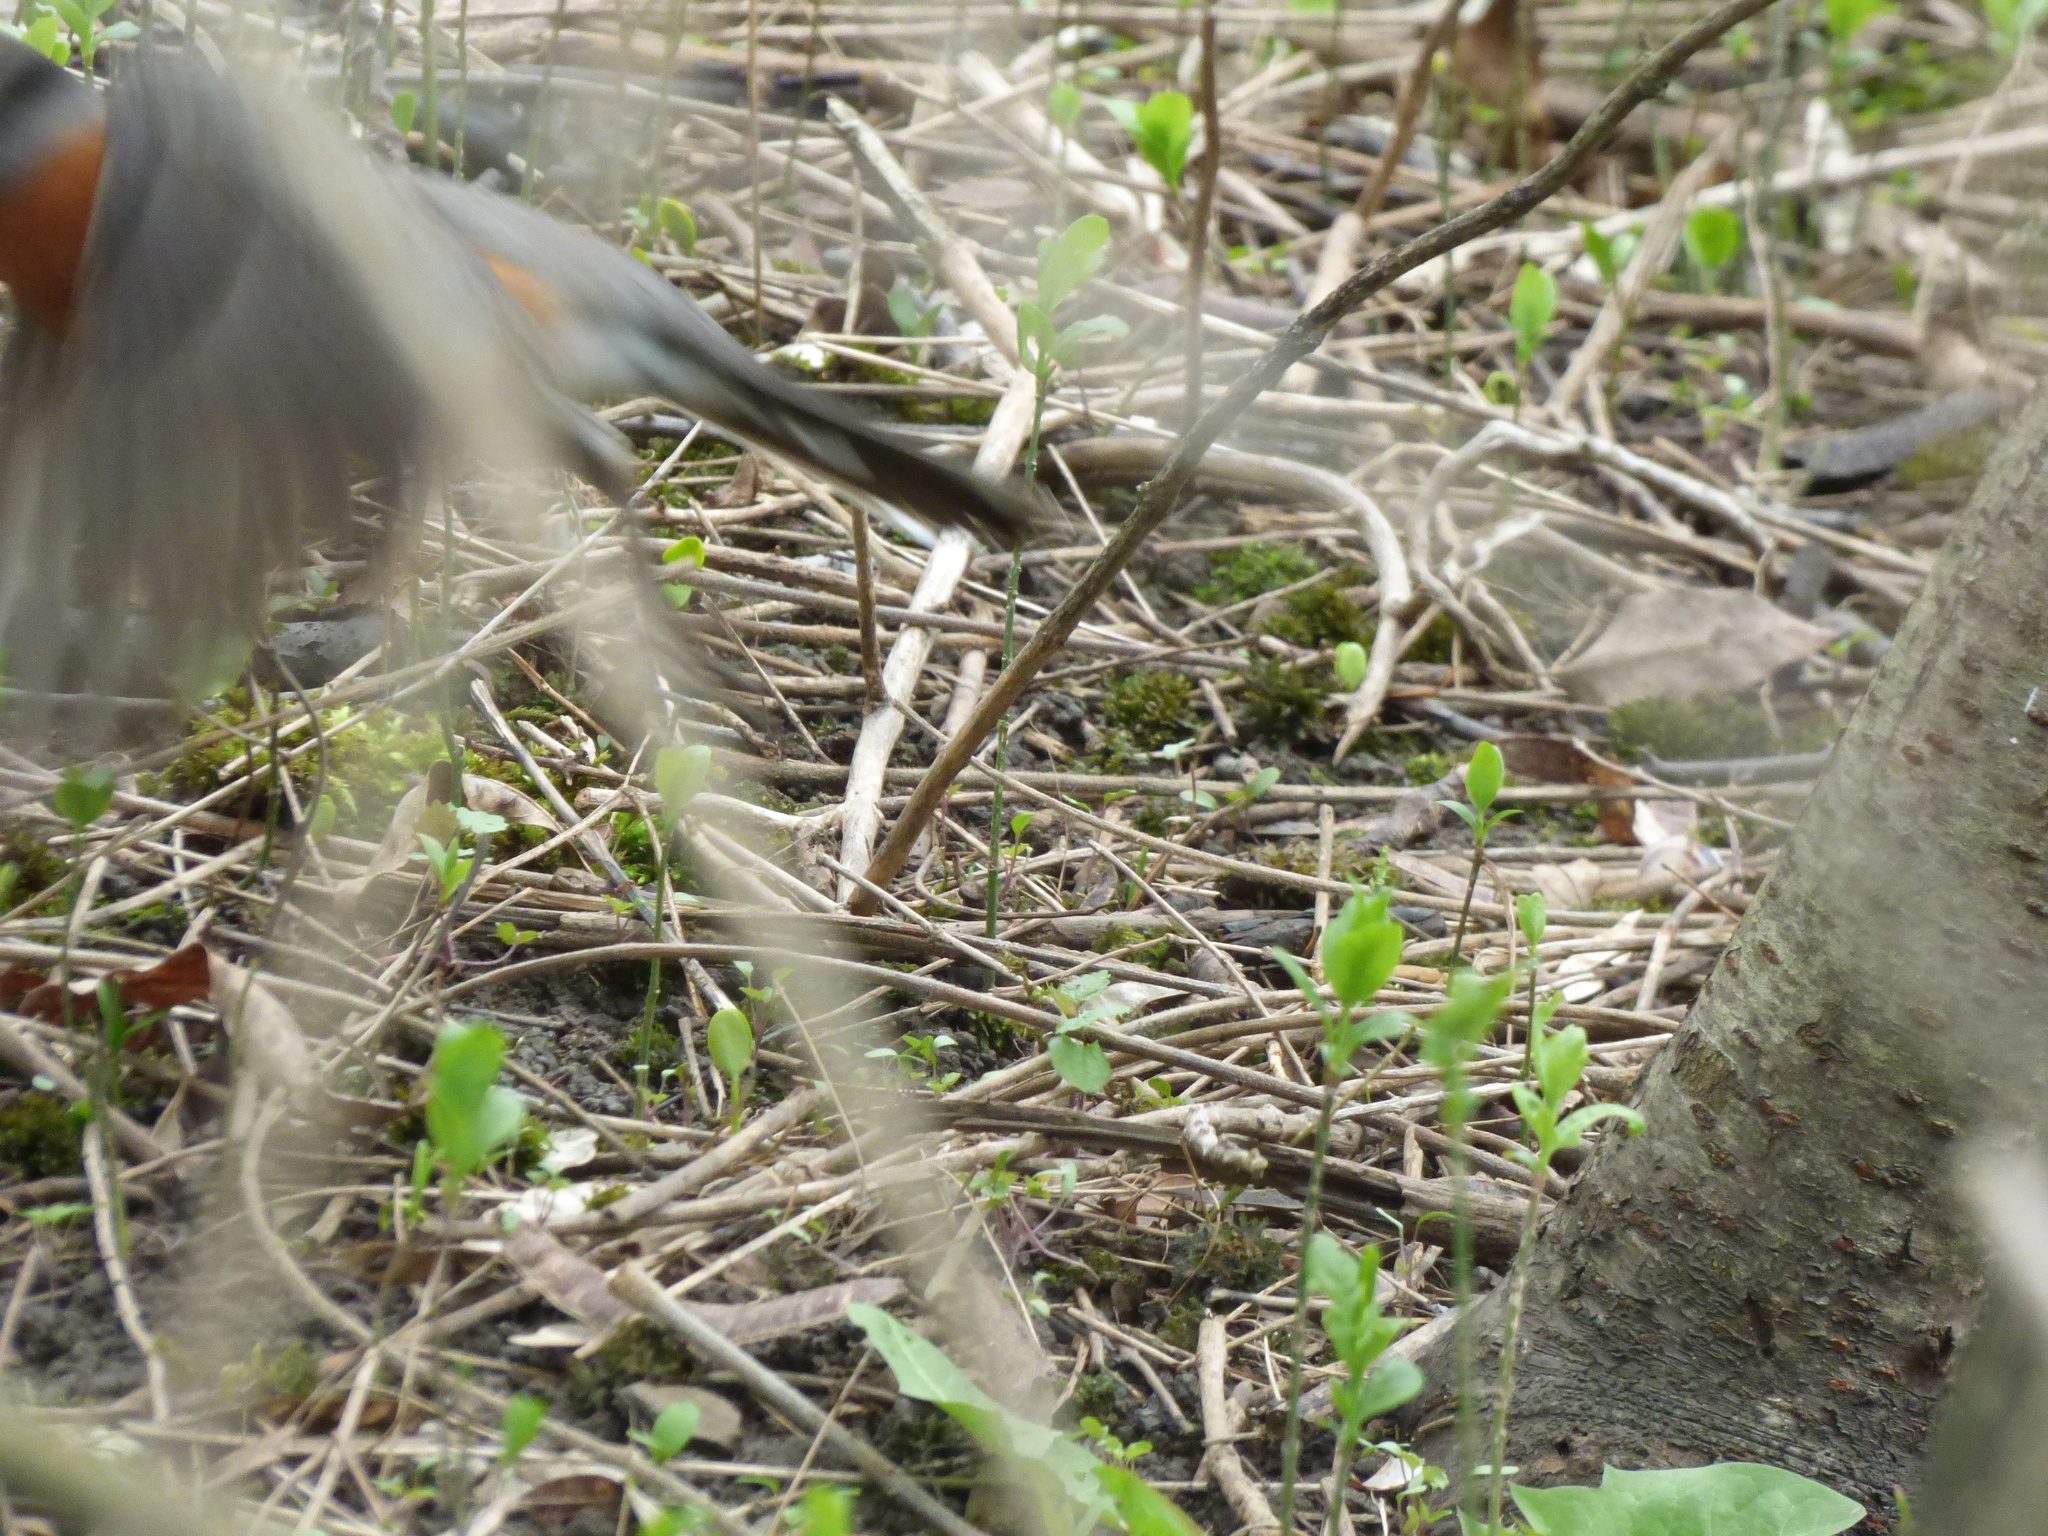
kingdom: Animalia
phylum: Chordata
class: Aves
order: Passeriformes
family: Turdidae
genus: Turdus
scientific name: Turdus migratorius
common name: American robin
